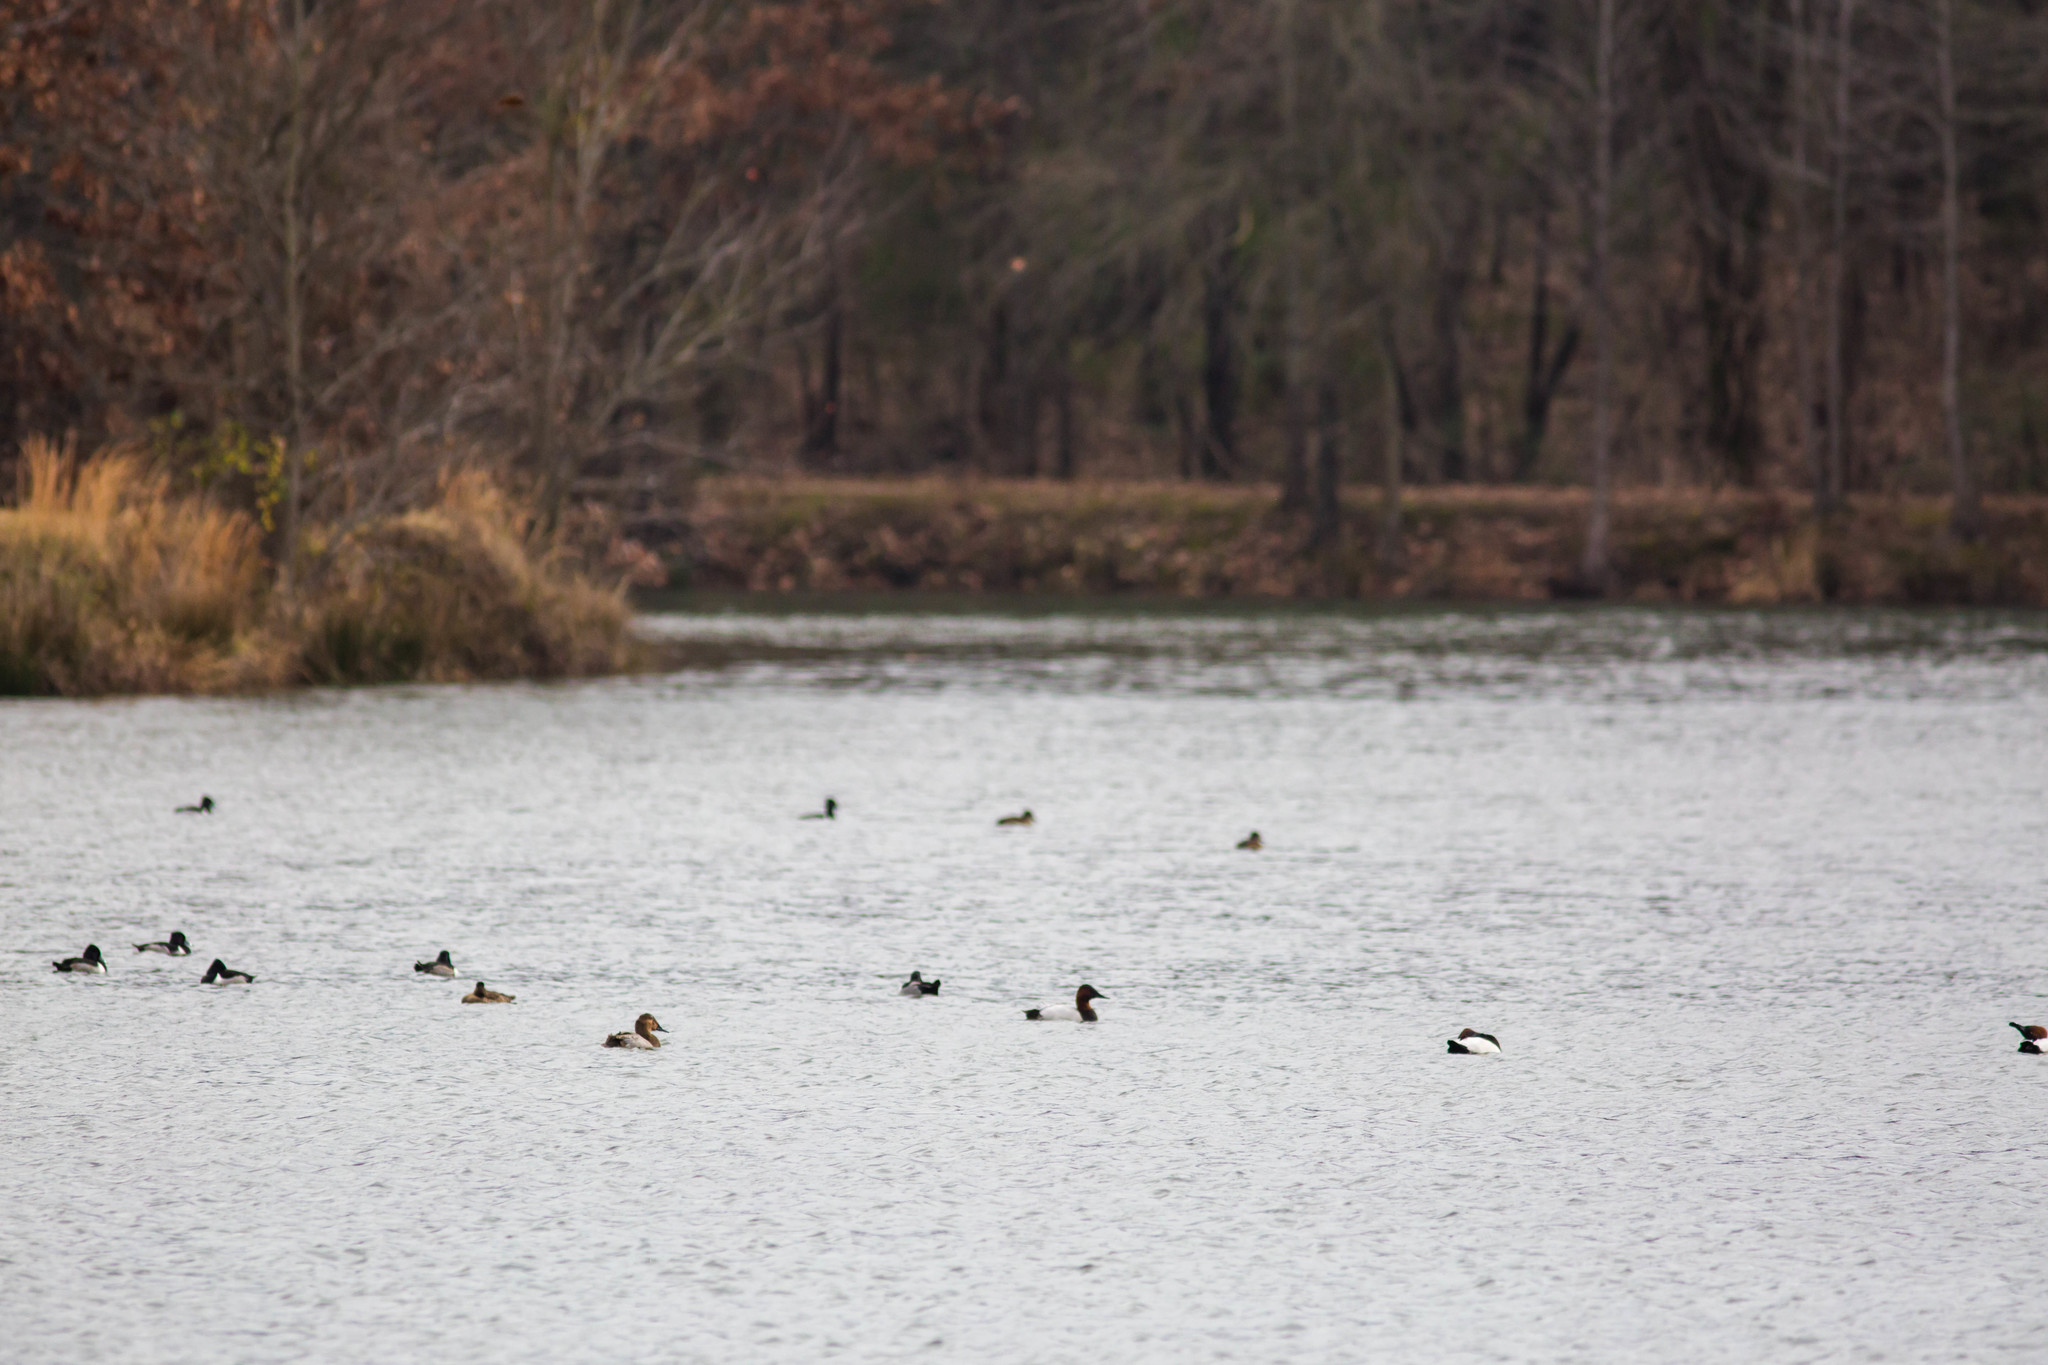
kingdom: Animalia
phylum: Chordata
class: Aves
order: Anseriformes
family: Anatidae
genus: Aythya
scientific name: Aythya valisineria
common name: Canvasback
